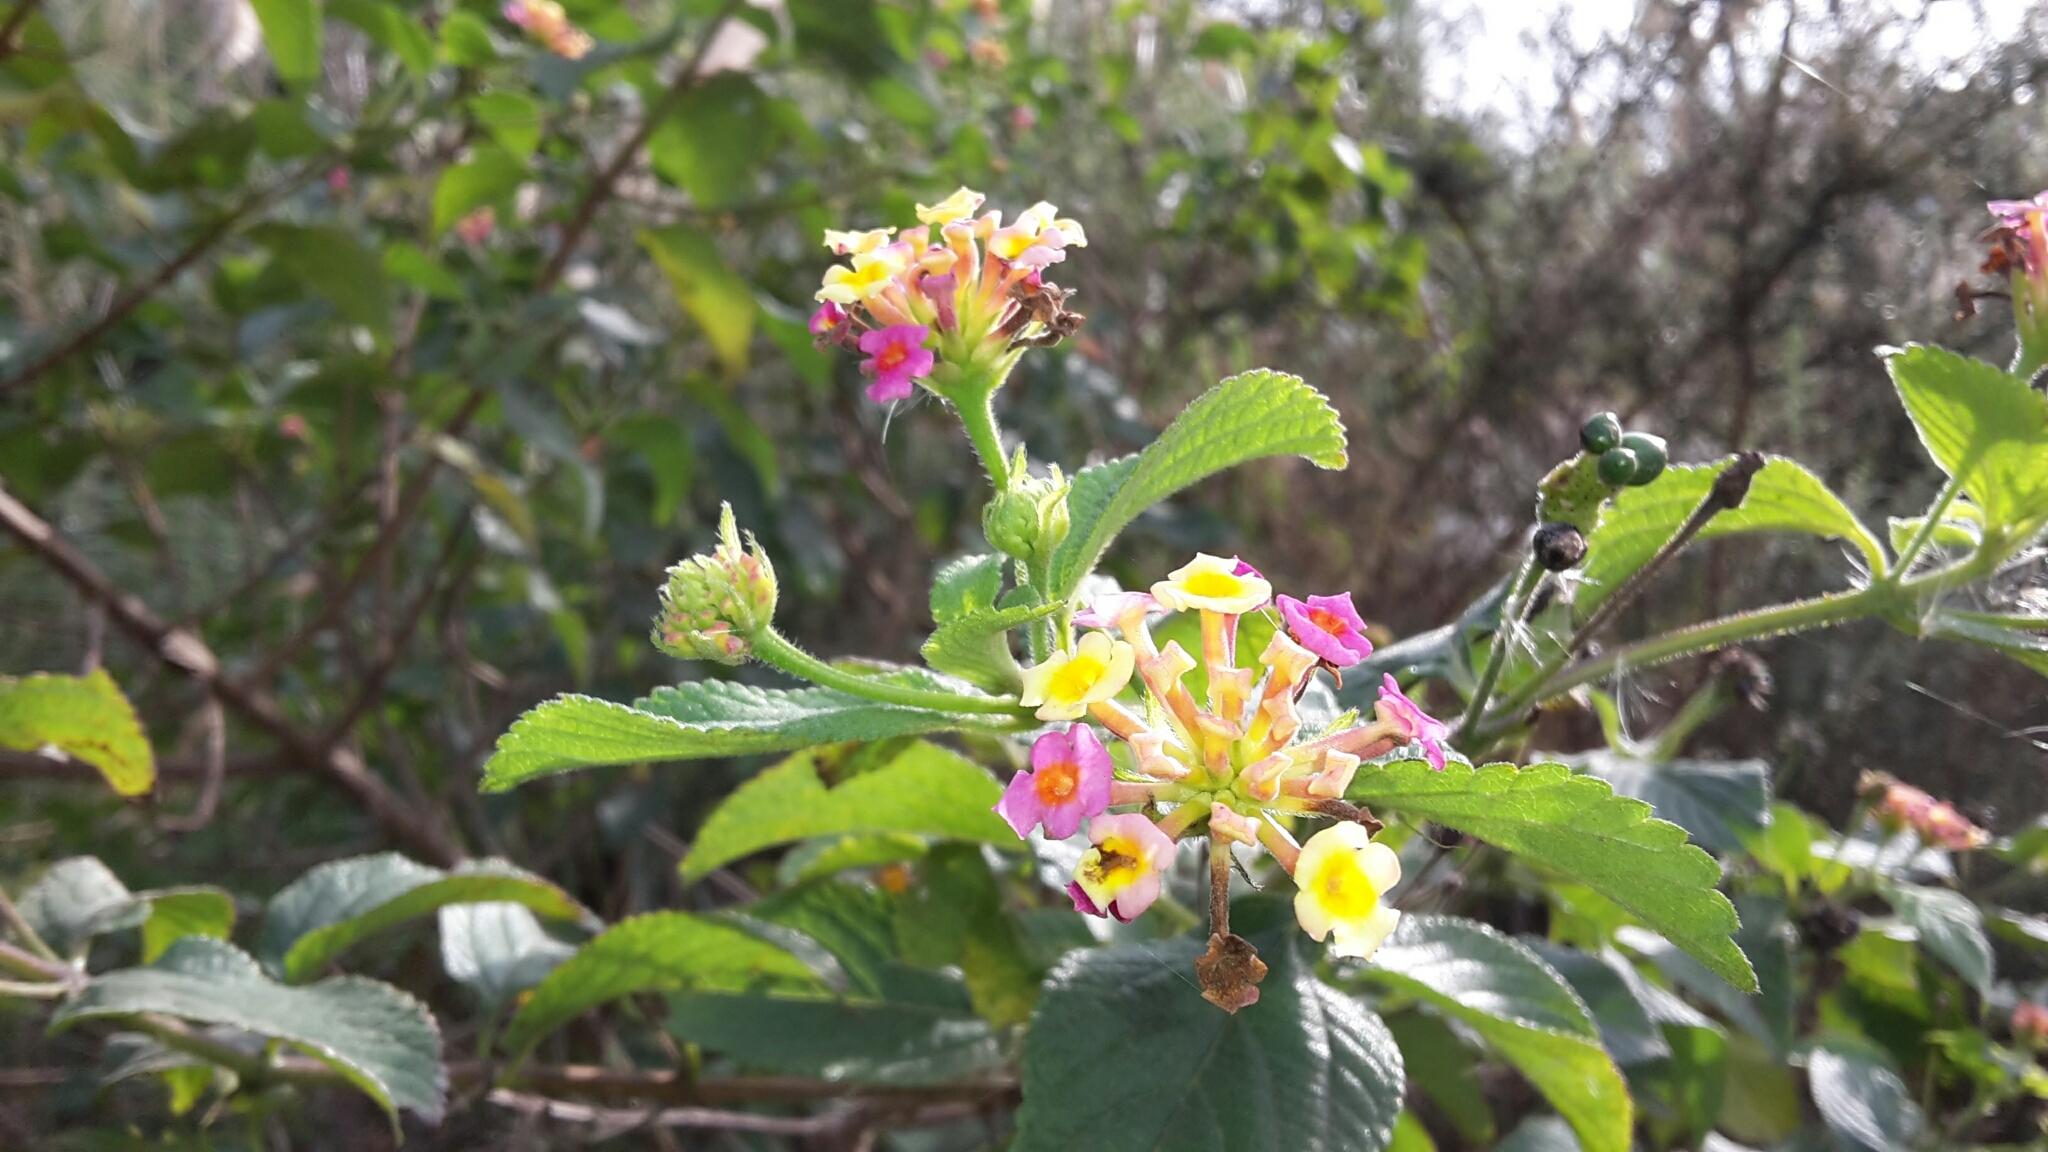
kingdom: Plantae
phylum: Tracheophyta
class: Magnoliopsida
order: Lamiales
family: Verbenaceae
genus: Lantana
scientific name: Lantana camara
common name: Lantana
